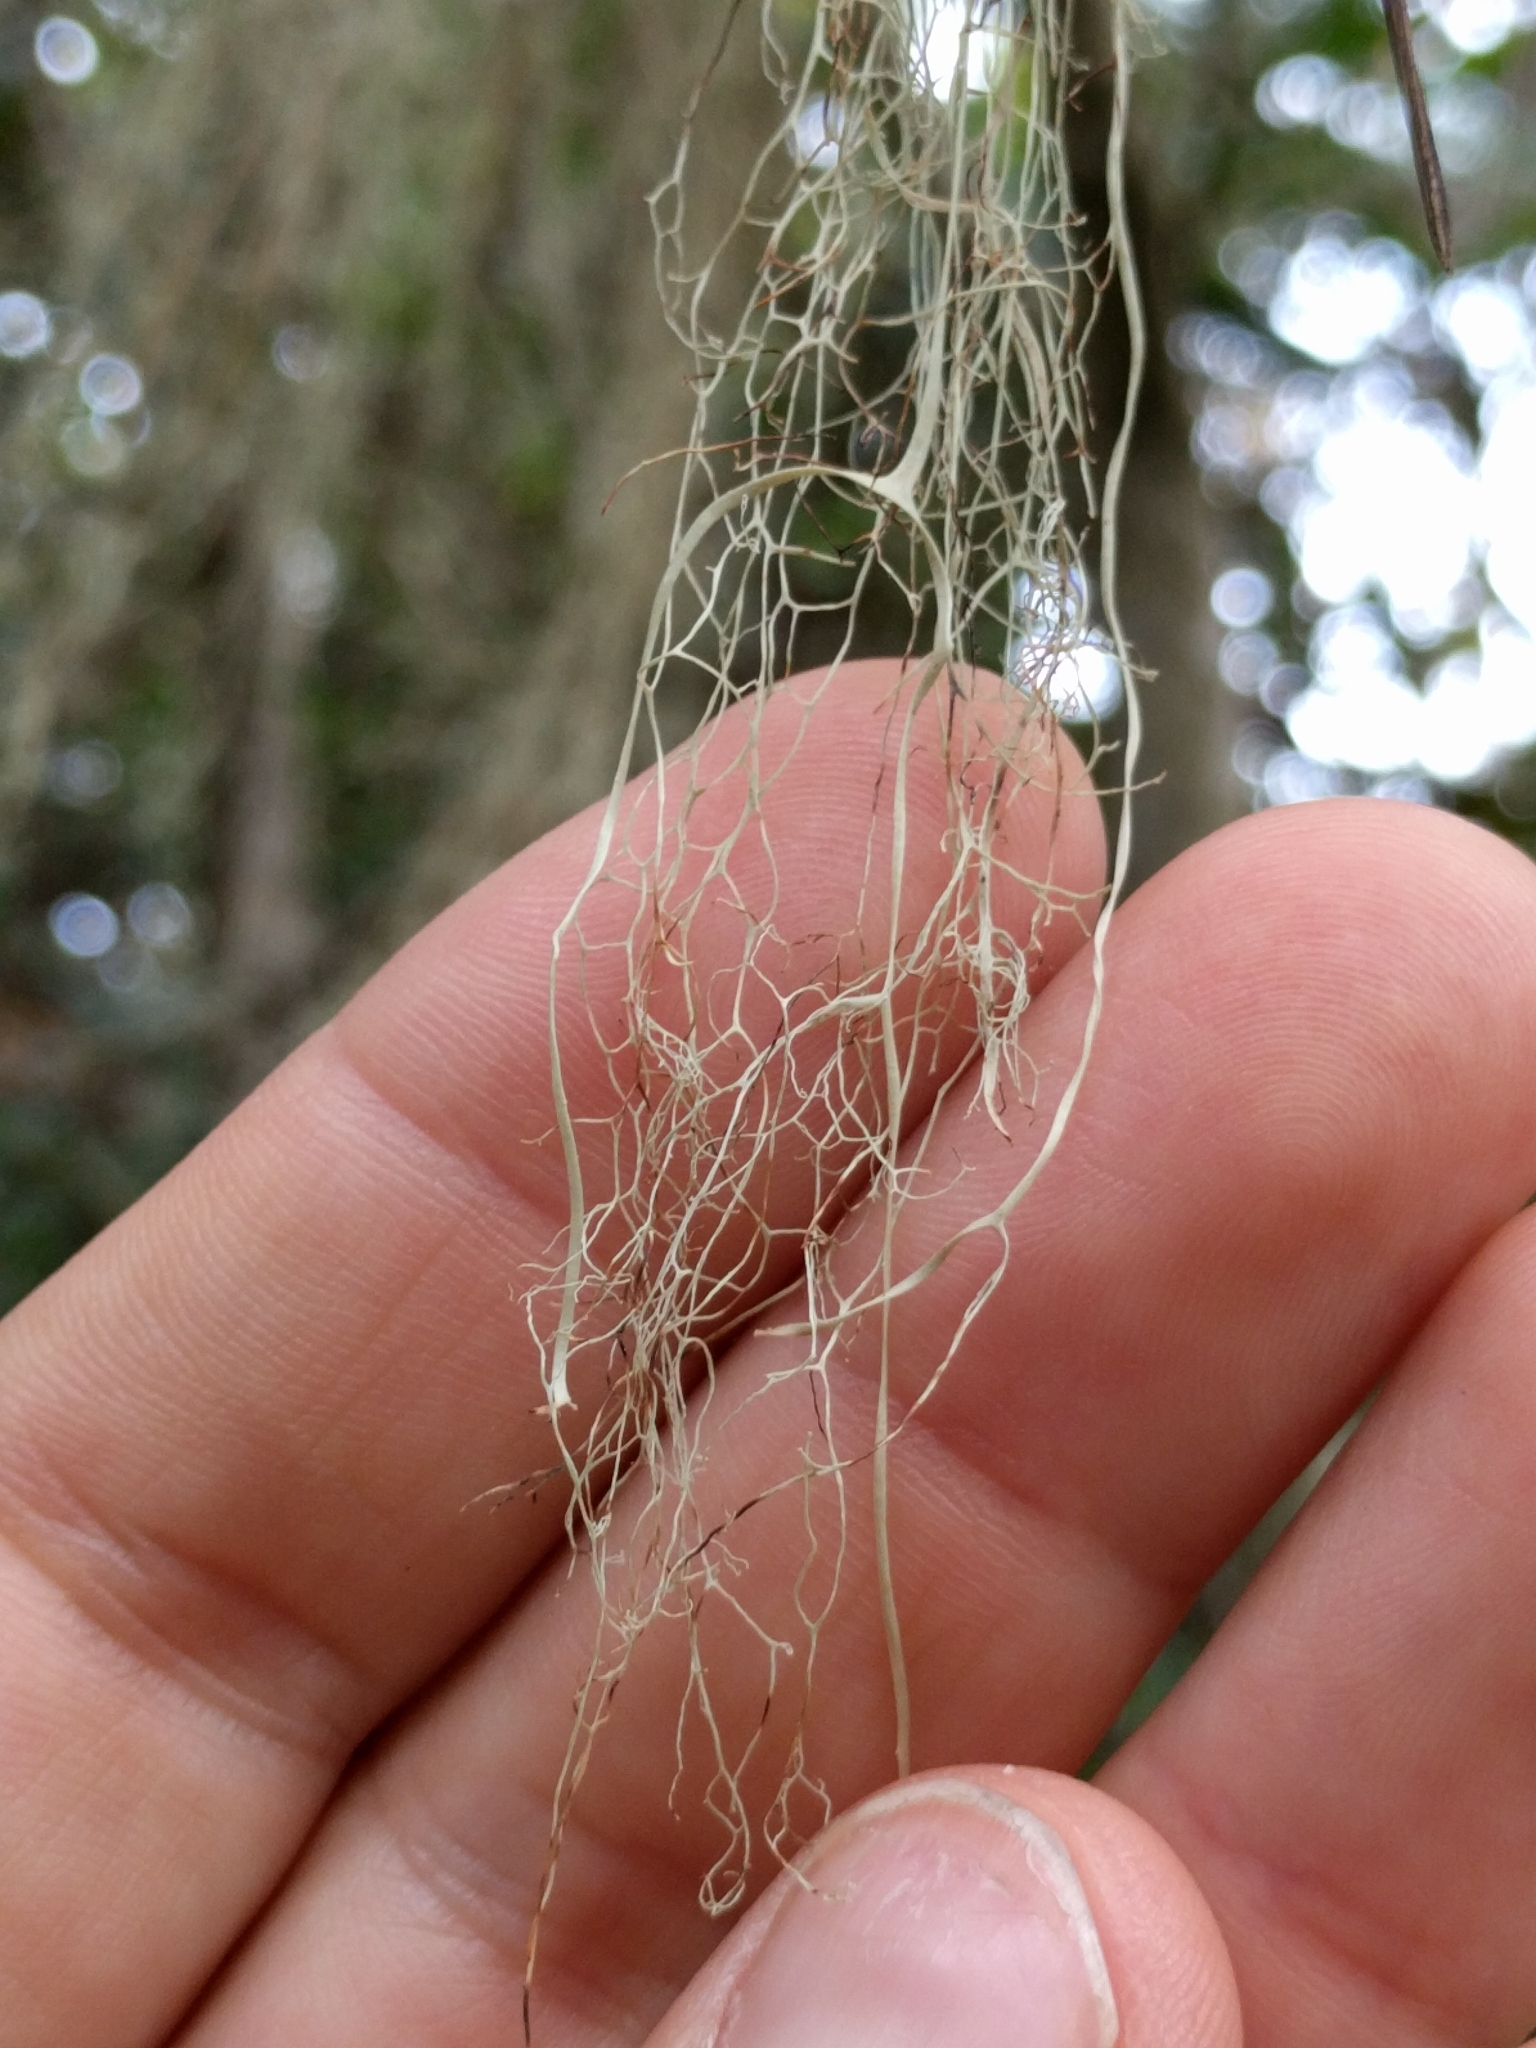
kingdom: Fungi
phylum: Ascomycota
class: Lecanoromycetes
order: Lecanorales
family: Ramalinaceae
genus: Ramalina
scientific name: Ramalina menziesii
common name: Lace lichen
